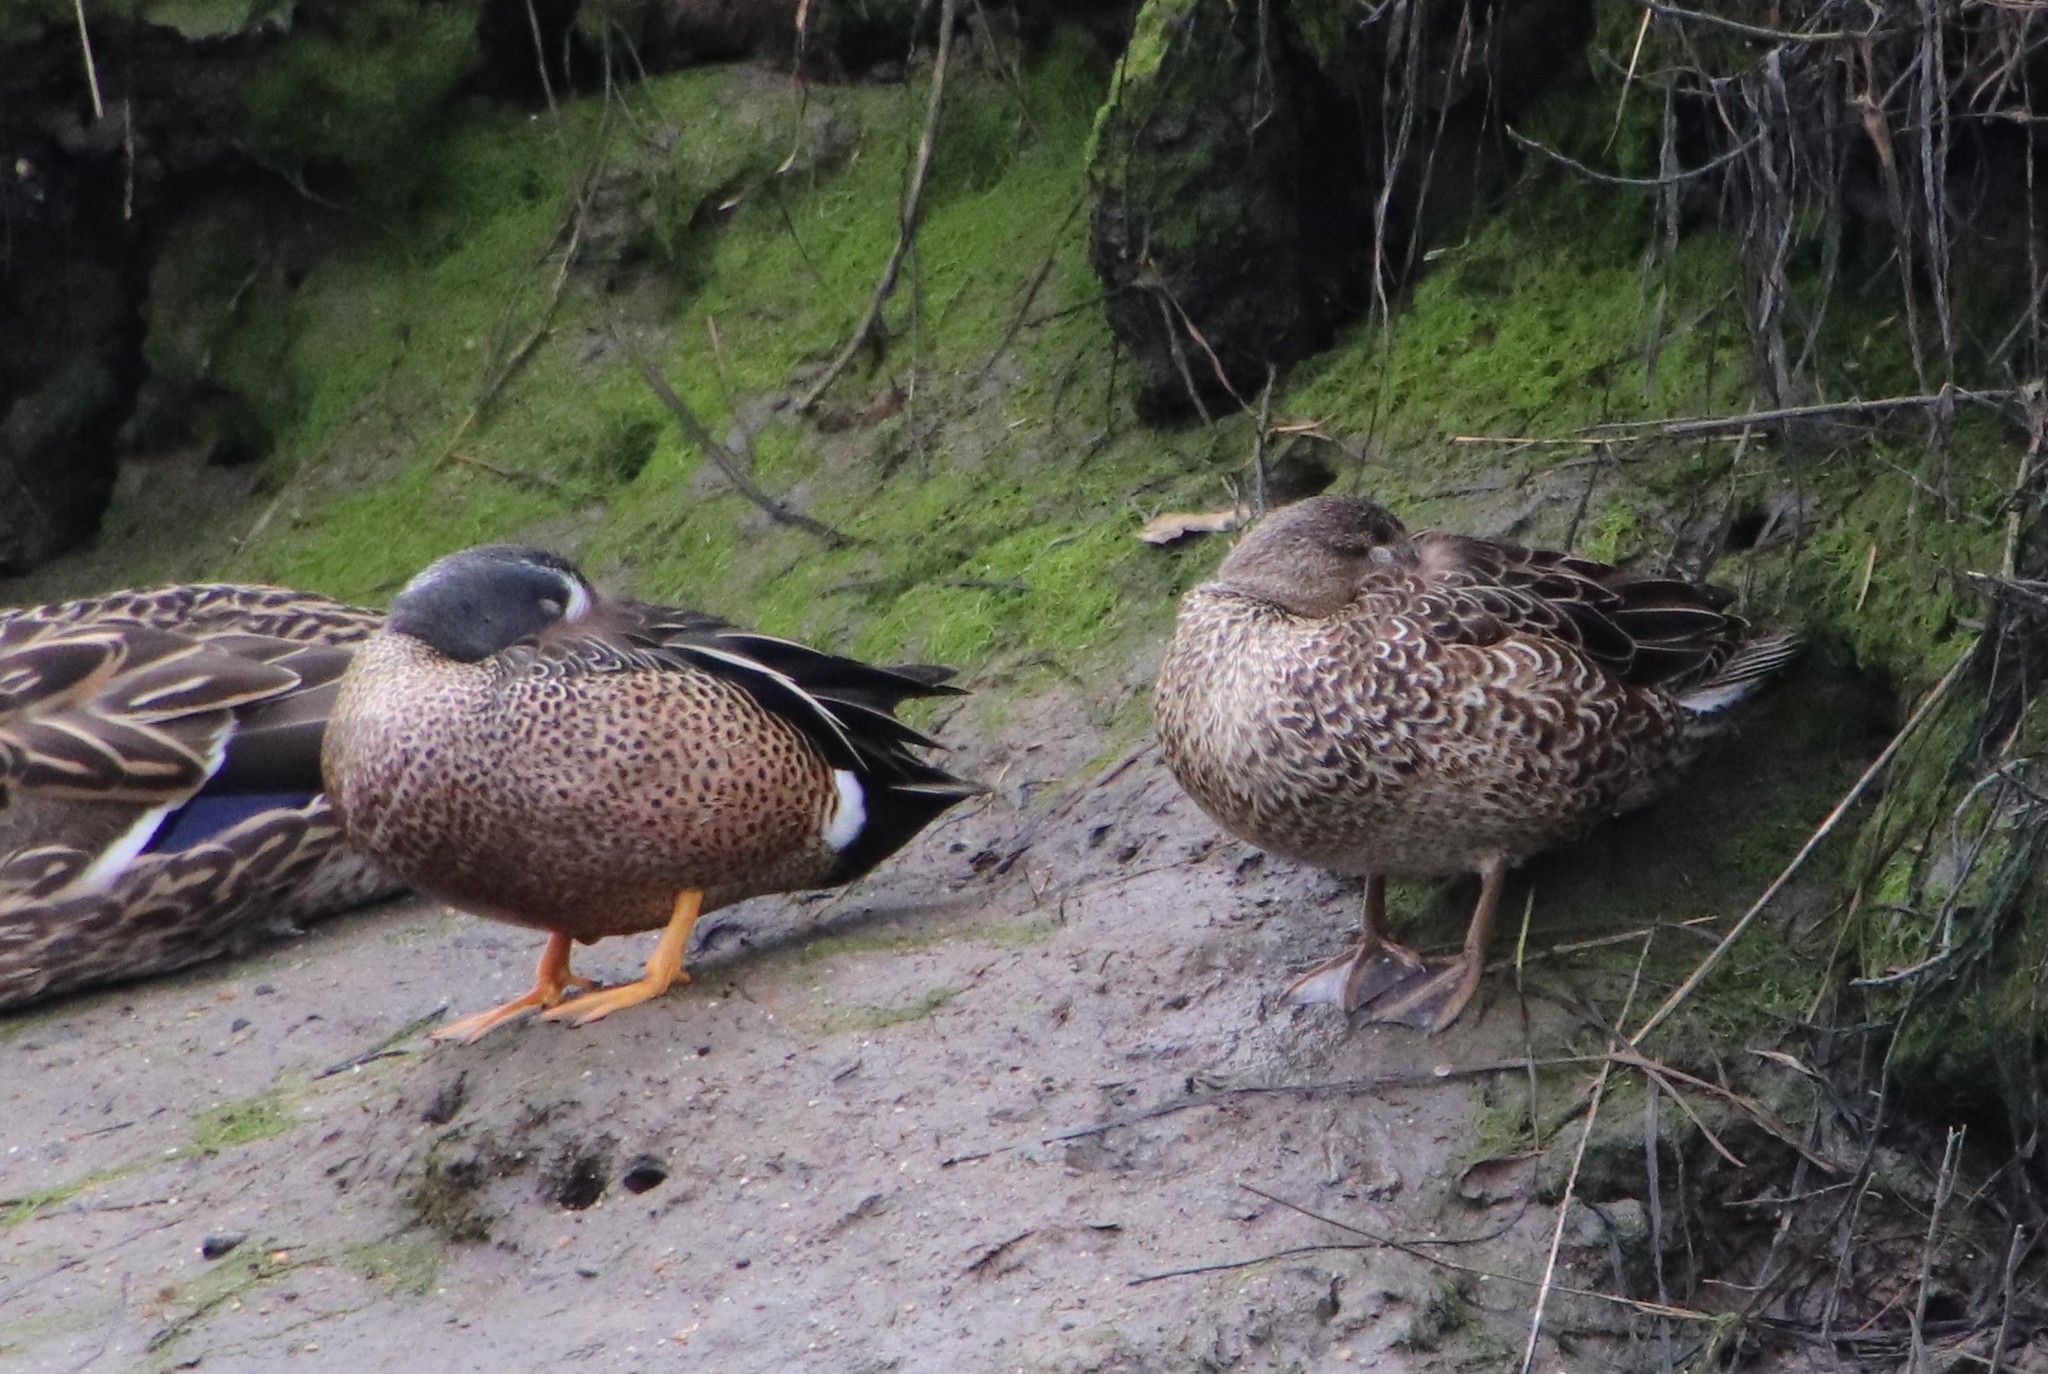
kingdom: Animalia
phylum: Chordata
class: Aves
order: Anseriformes
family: Anatidae
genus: Spatula
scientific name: Spatula discors
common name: Blue-winged teal
